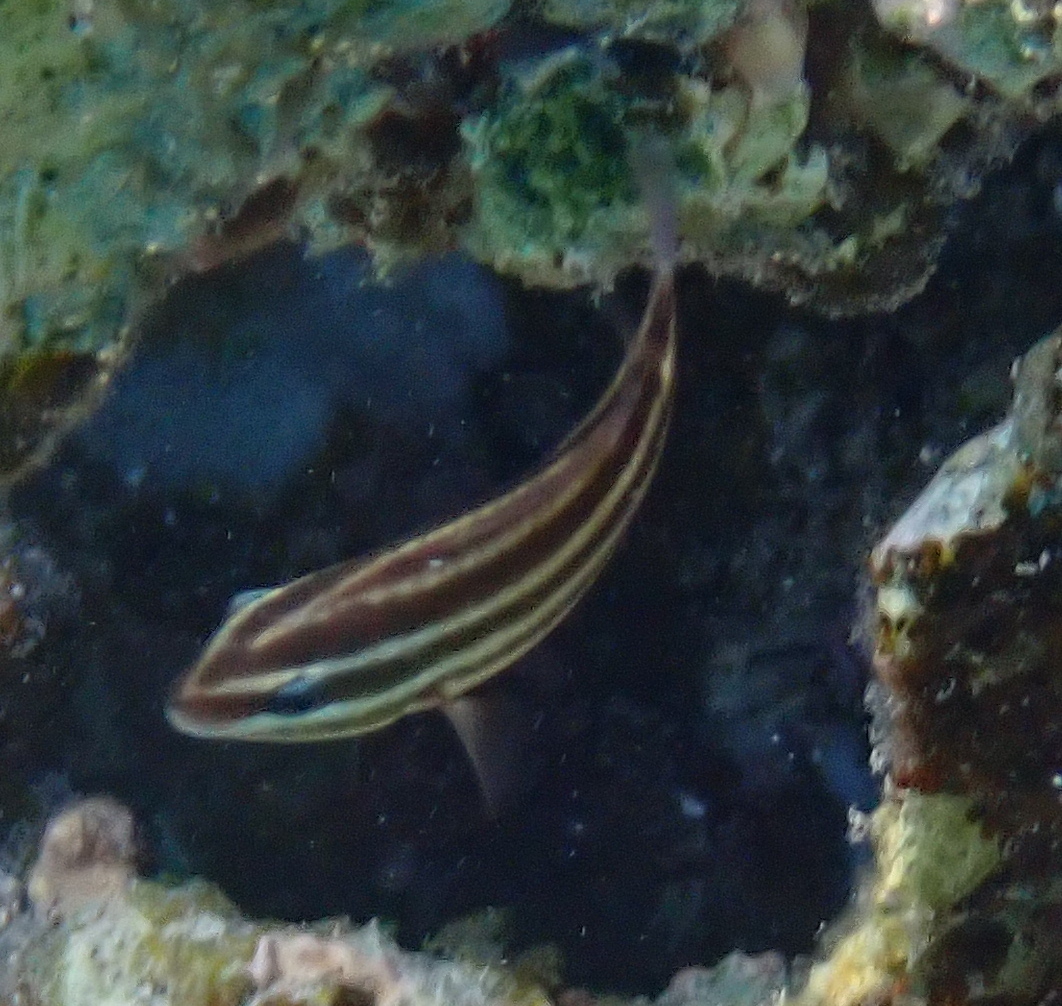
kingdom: Animalia
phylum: Chordata
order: Perciformes
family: Scaridae
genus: Chlorurus
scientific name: Chlorurus sordidus
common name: Bullethead parrotfish
